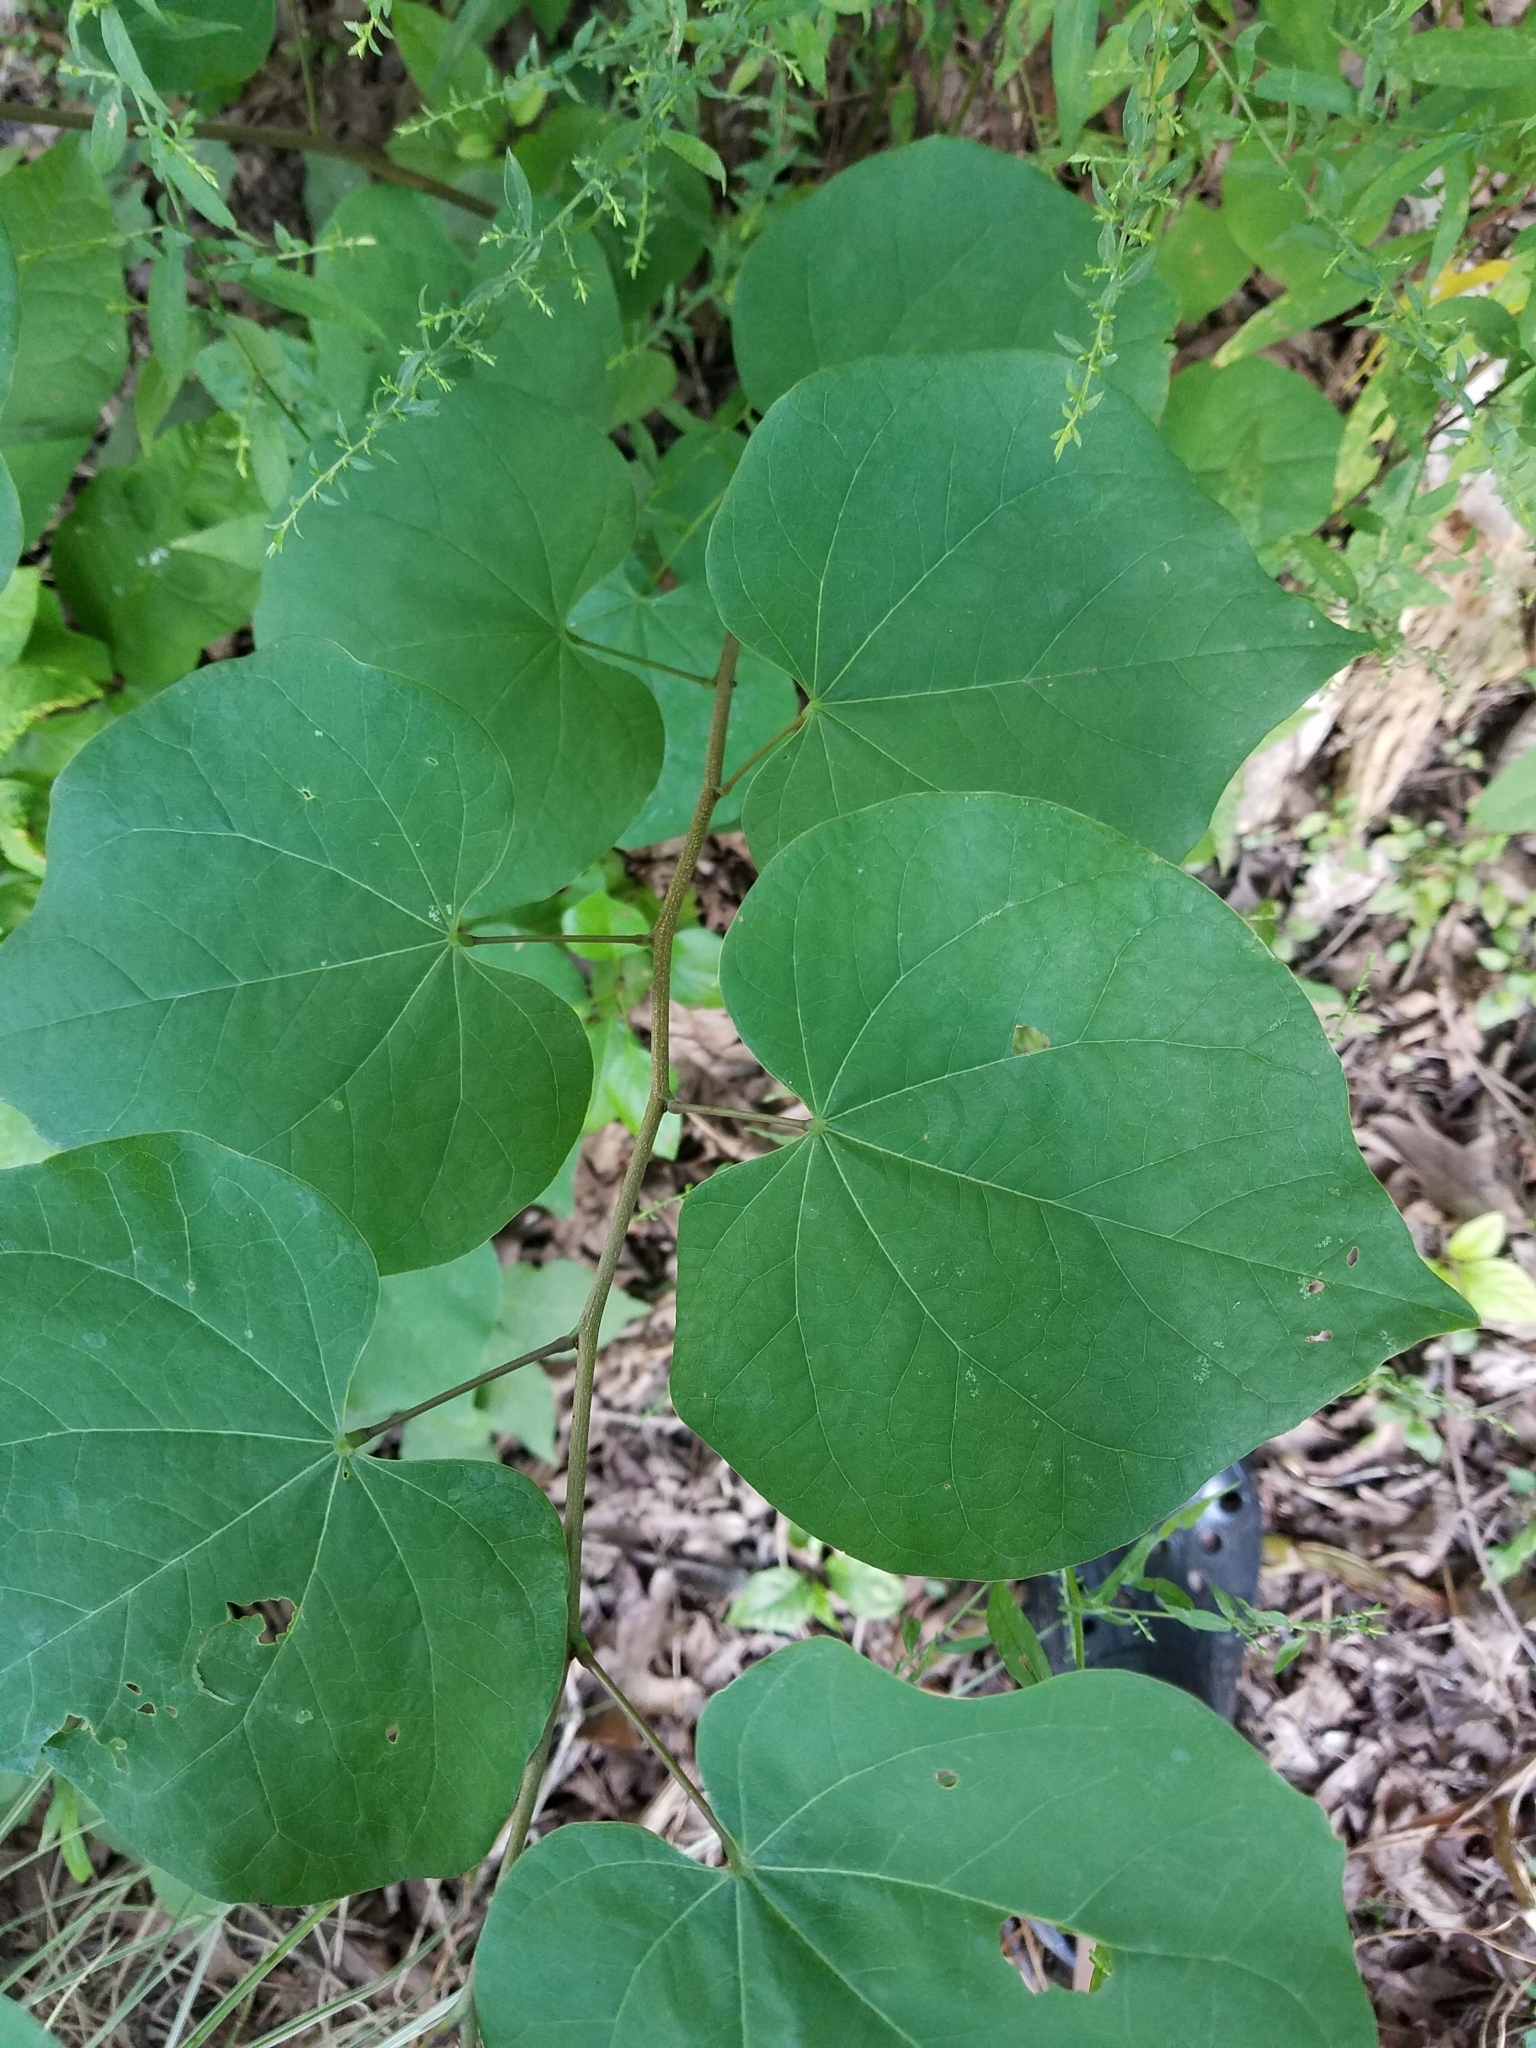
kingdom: Plantae
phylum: Tracheophyta
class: Magnoliopsida
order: Fabales
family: Fabaceae
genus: Cercis
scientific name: Cercis canadensis
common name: Eastern redbud
